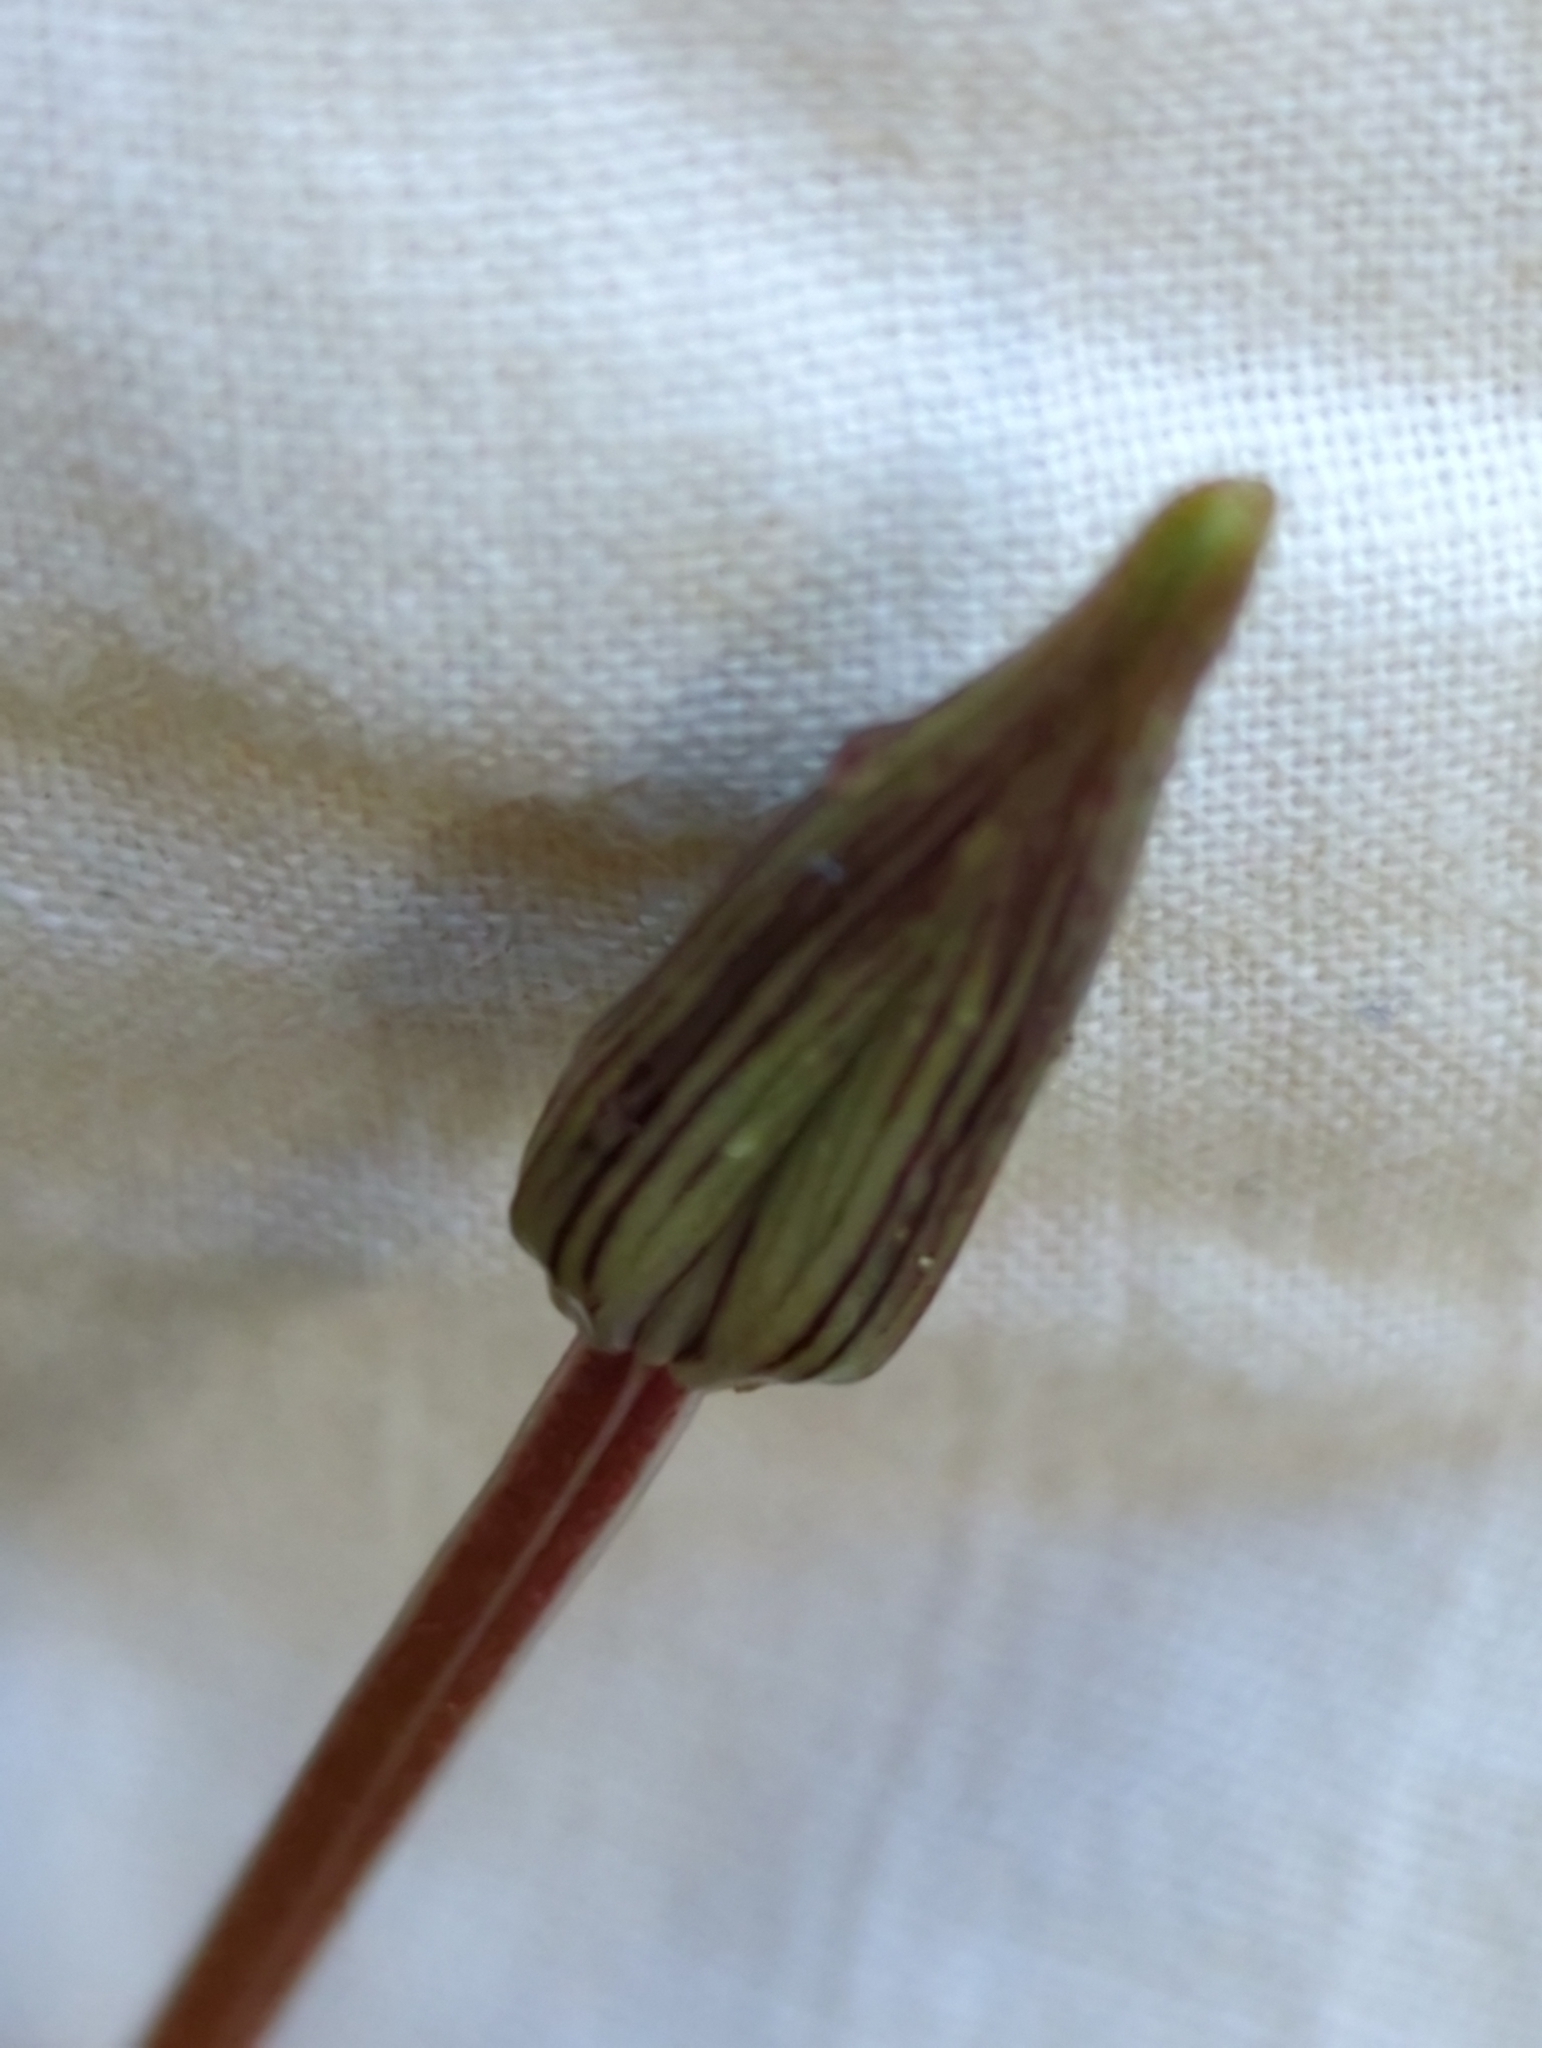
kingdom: Plantae
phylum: Tracheophyta
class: Liliopsida
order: Liliales
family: Liliaceae
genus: Scoliopus
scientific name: Scoliopus bigelovii
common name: Foetid adder's-tongue
